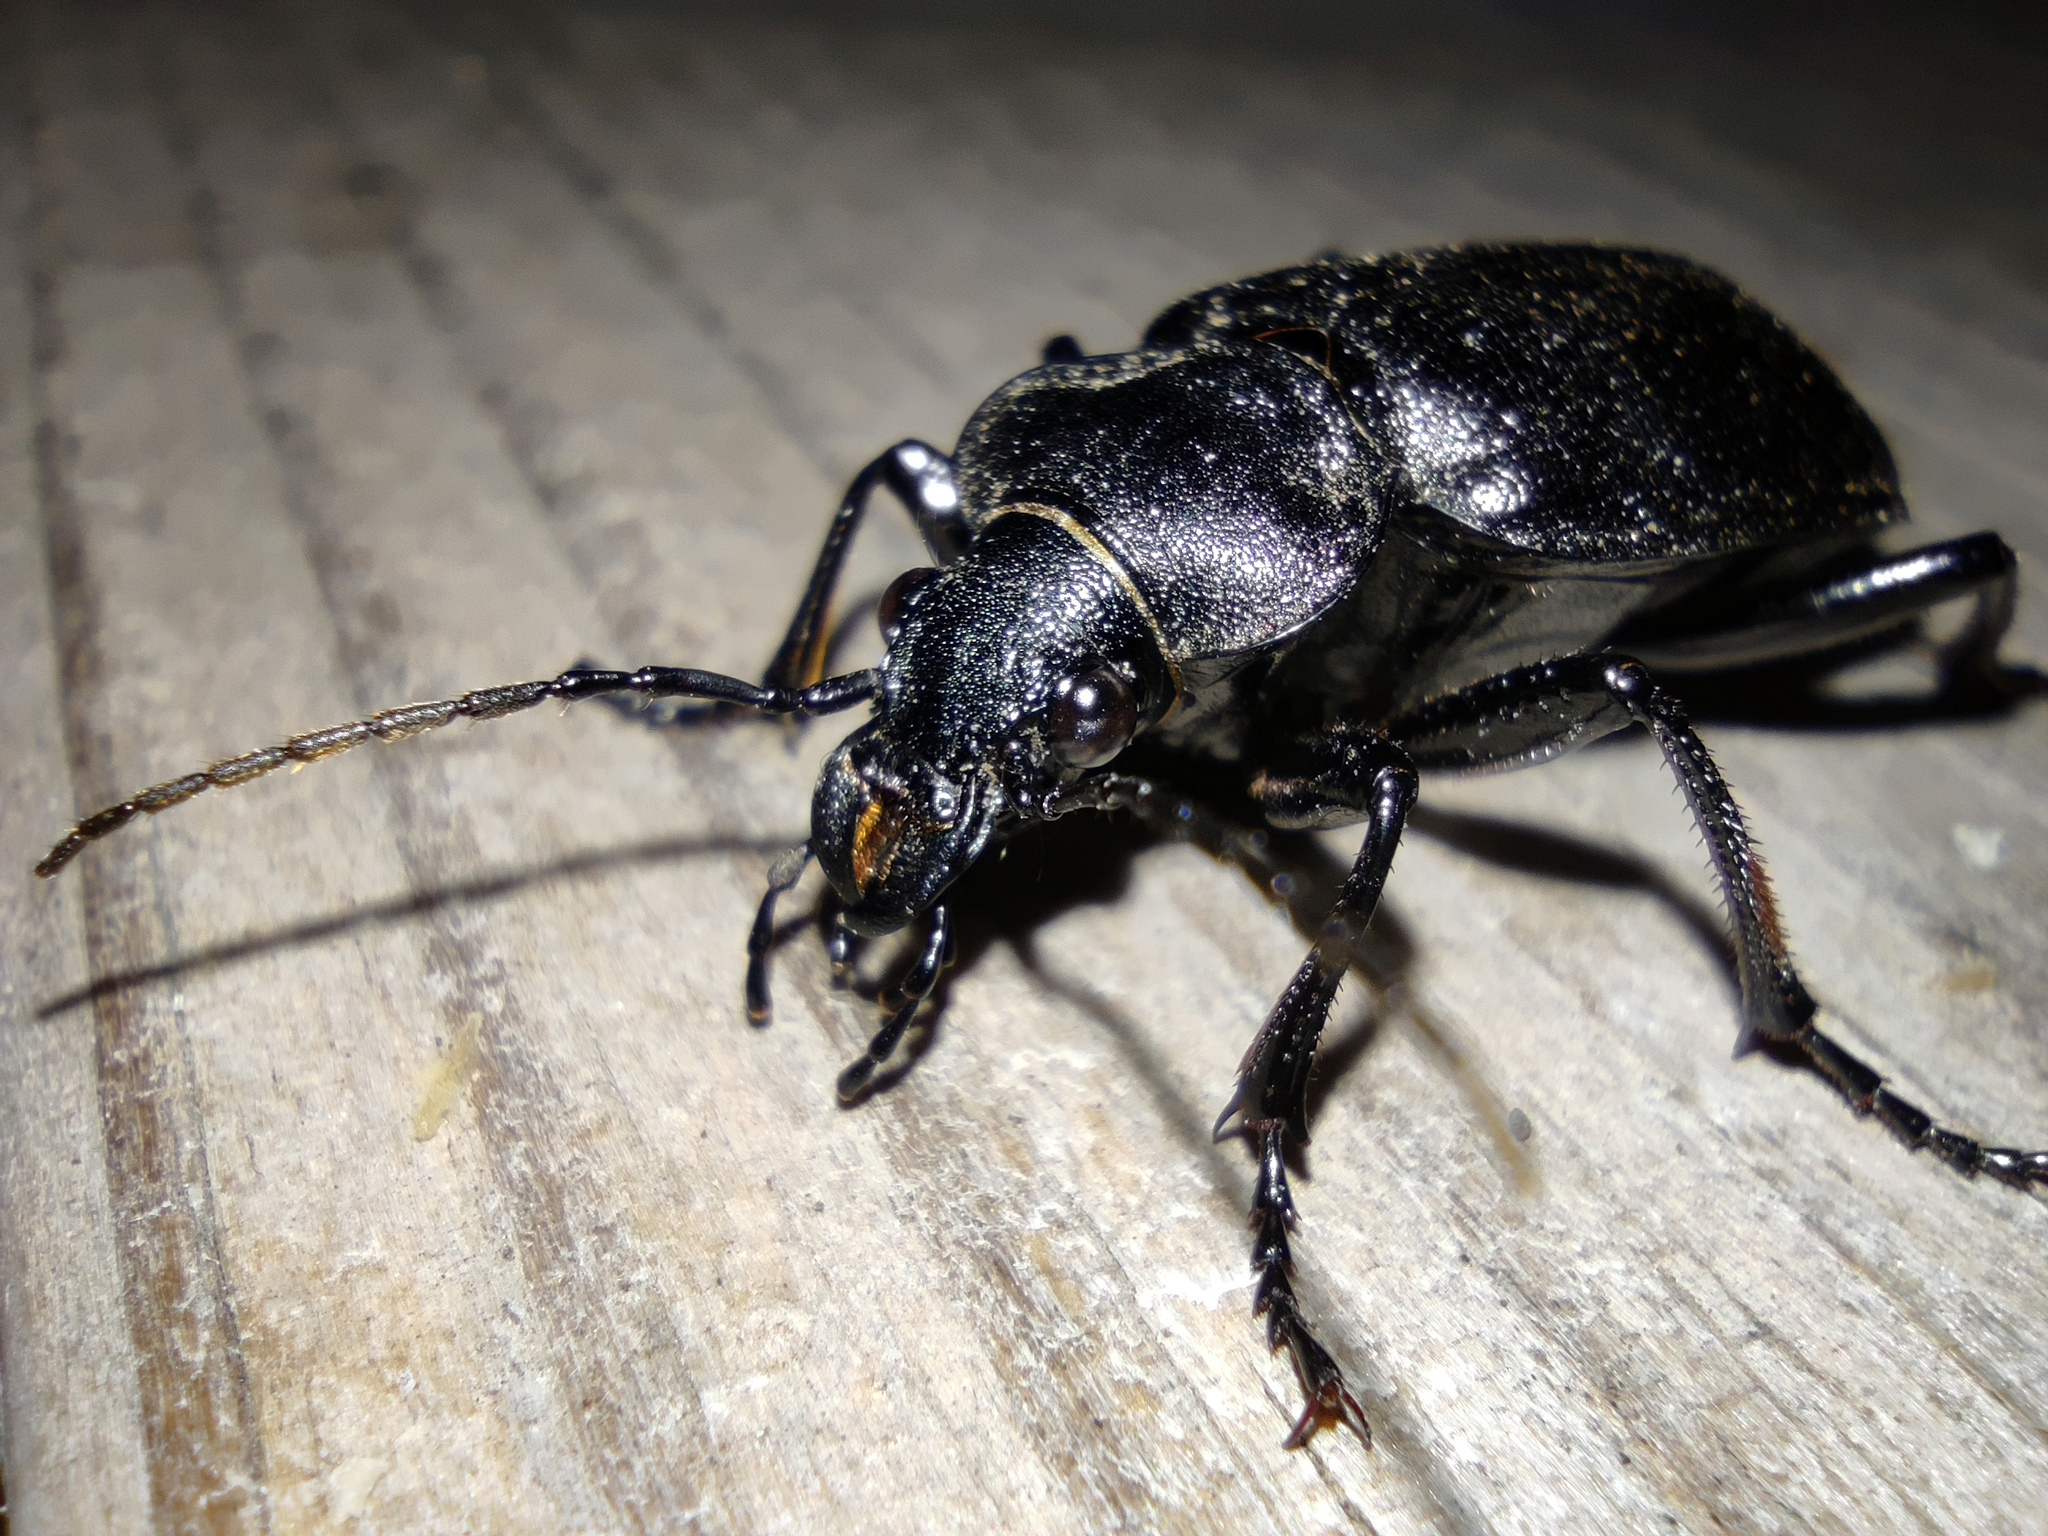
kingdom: Animalia
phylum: Arthropoda
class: Insecta
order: Coleoptera
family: Carabidae
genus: Calosoma
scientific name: Calosoma denticolle
